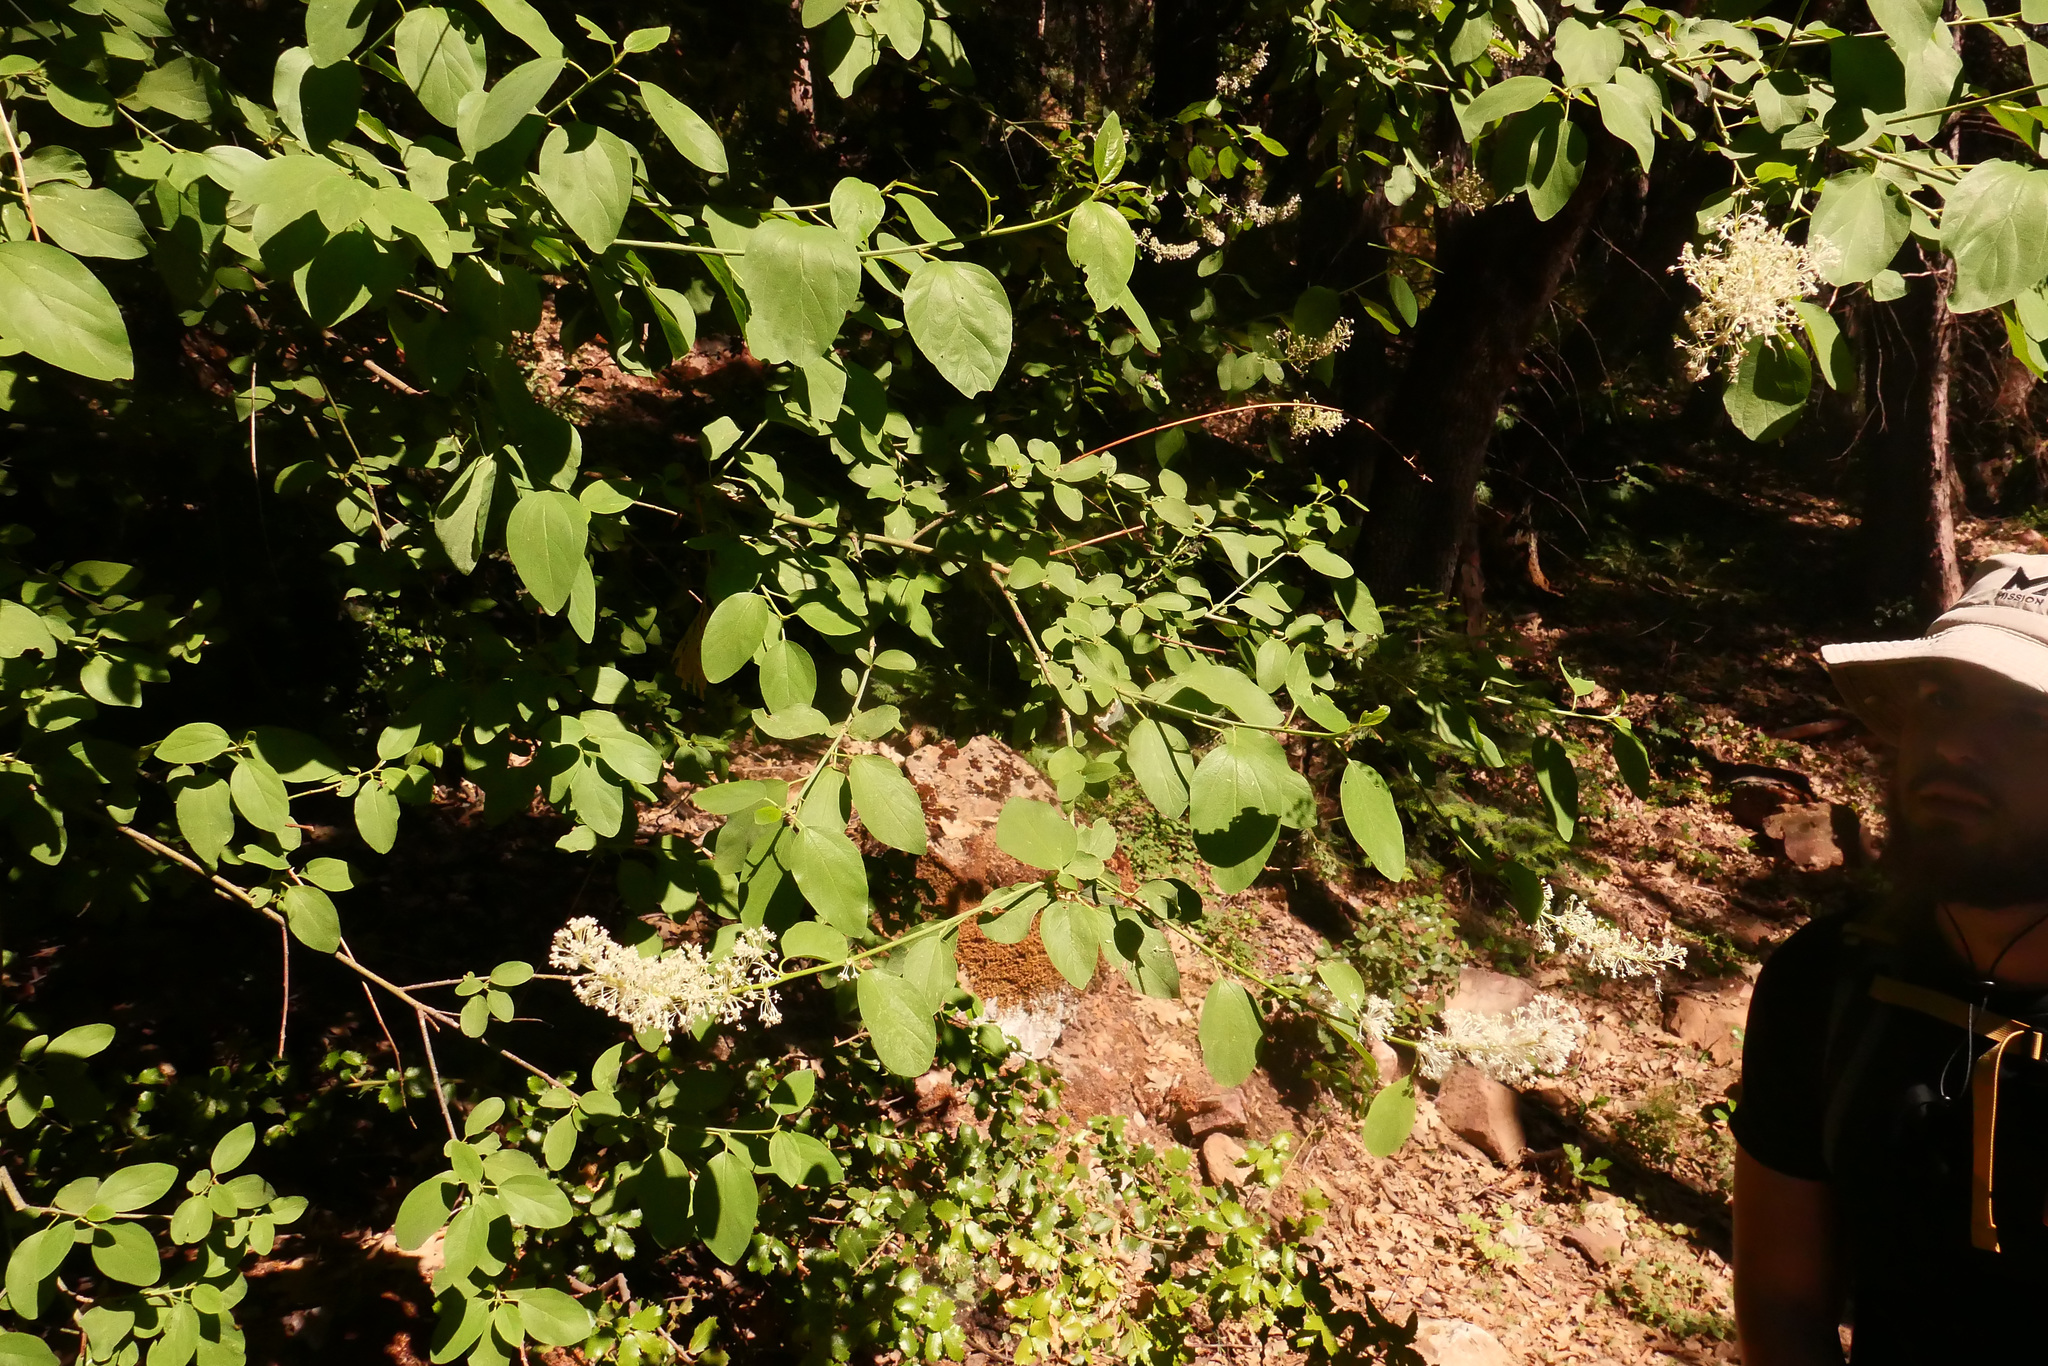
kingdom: Plantae
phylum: Tracheophyta
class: Magnoliopsida
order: Rosales
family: Rhamnaceae
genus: Ceanothus
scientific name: Ceanothus integerrimus
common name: Deerbrush ceanothus
